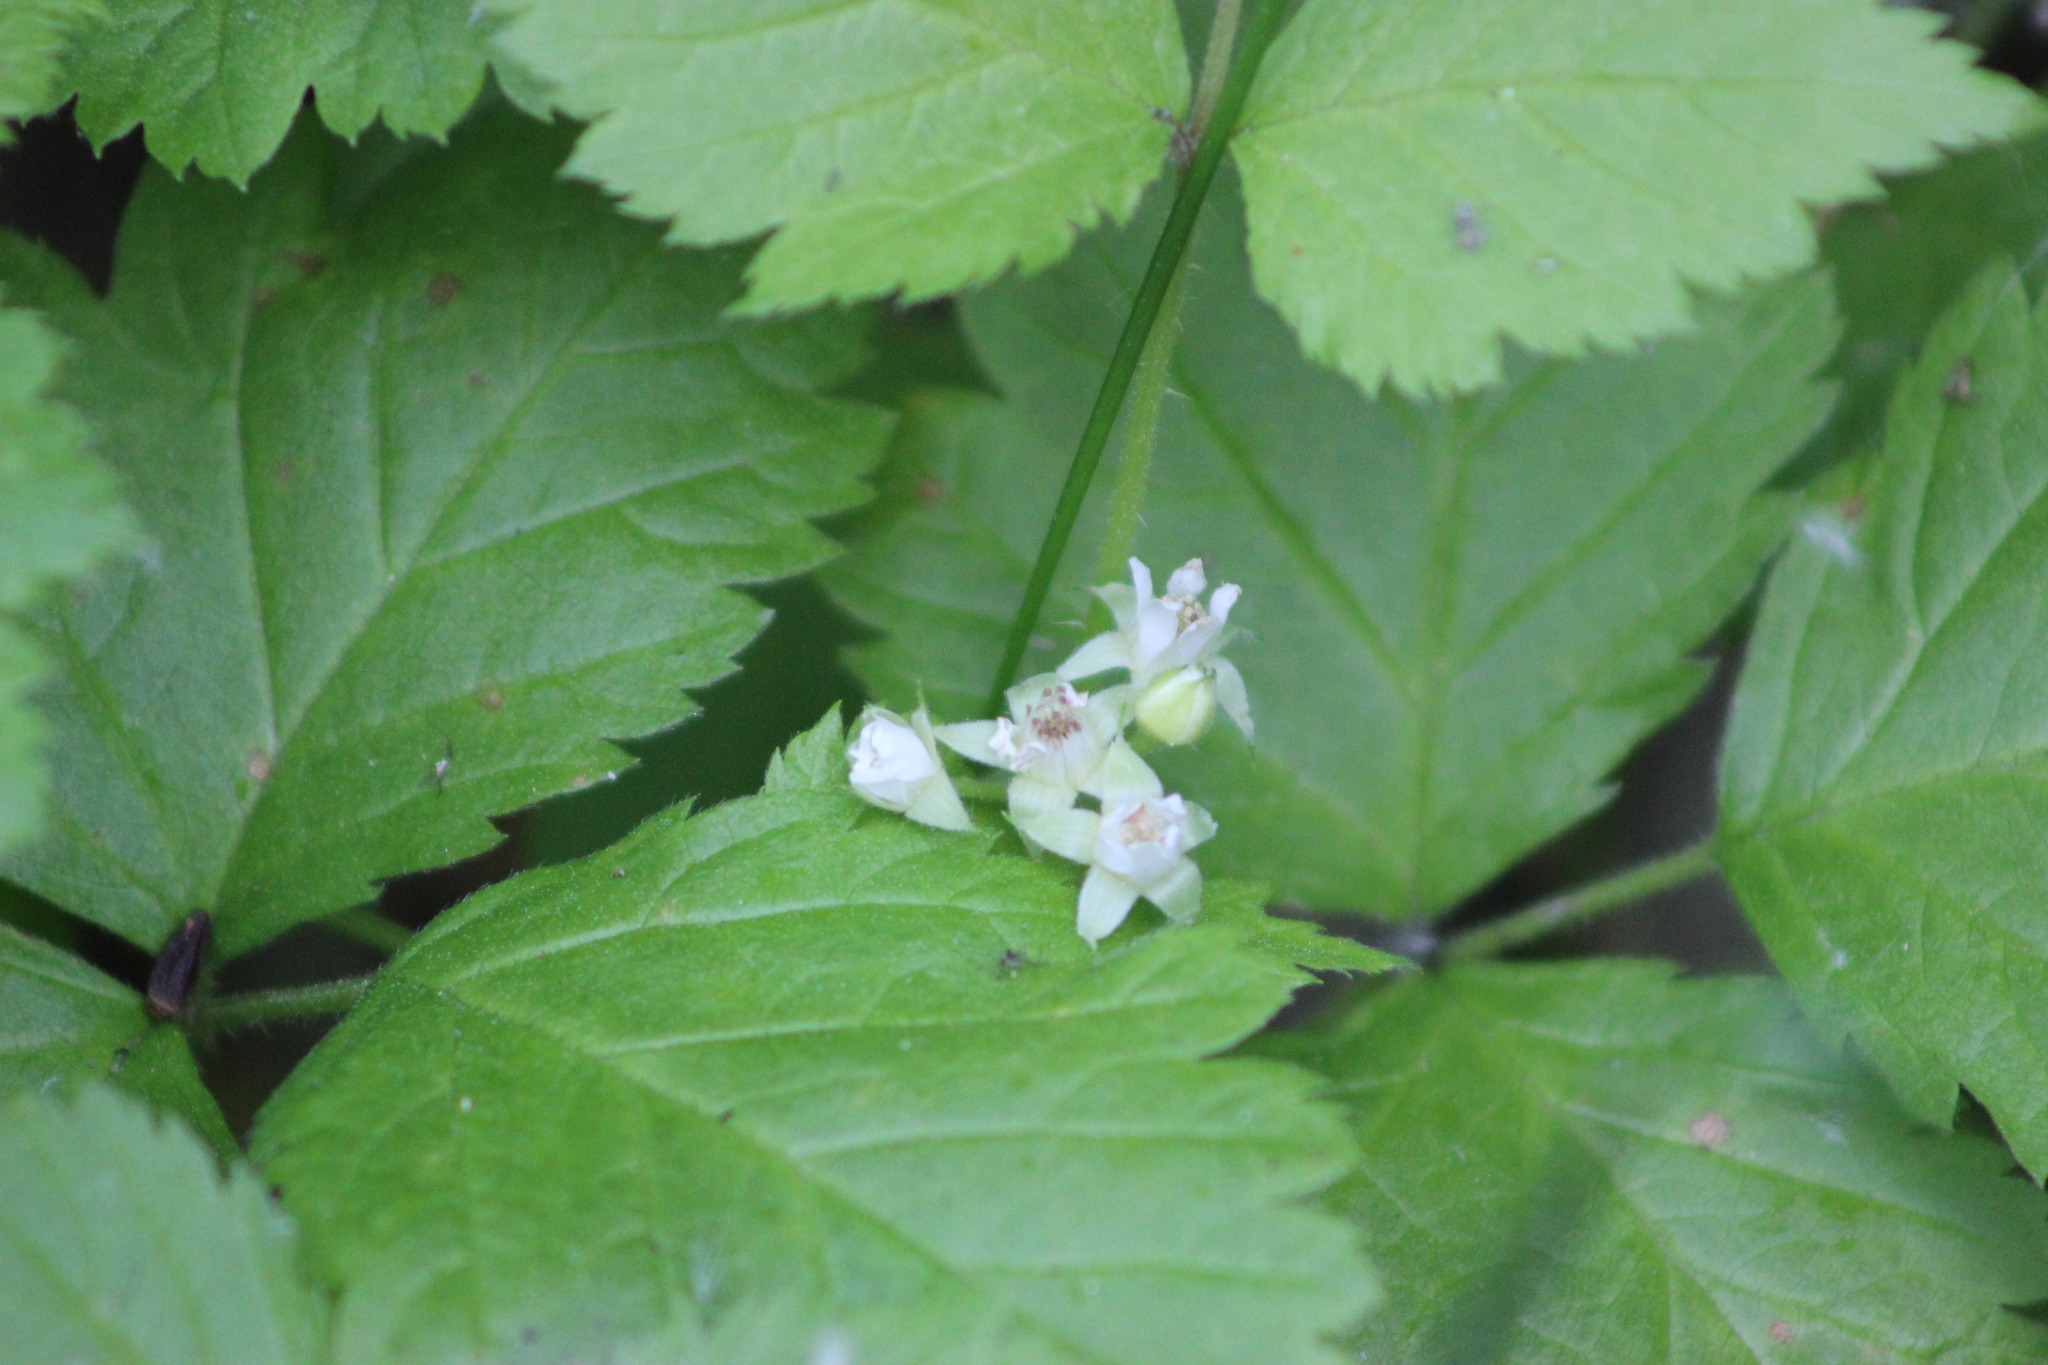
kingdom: Plantae
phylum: Tracheophyta
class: Magnoliopsida
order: Rosales
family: Rosaceae
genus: Rubus
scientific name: Rubus saxatilis
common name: Stone bramble
